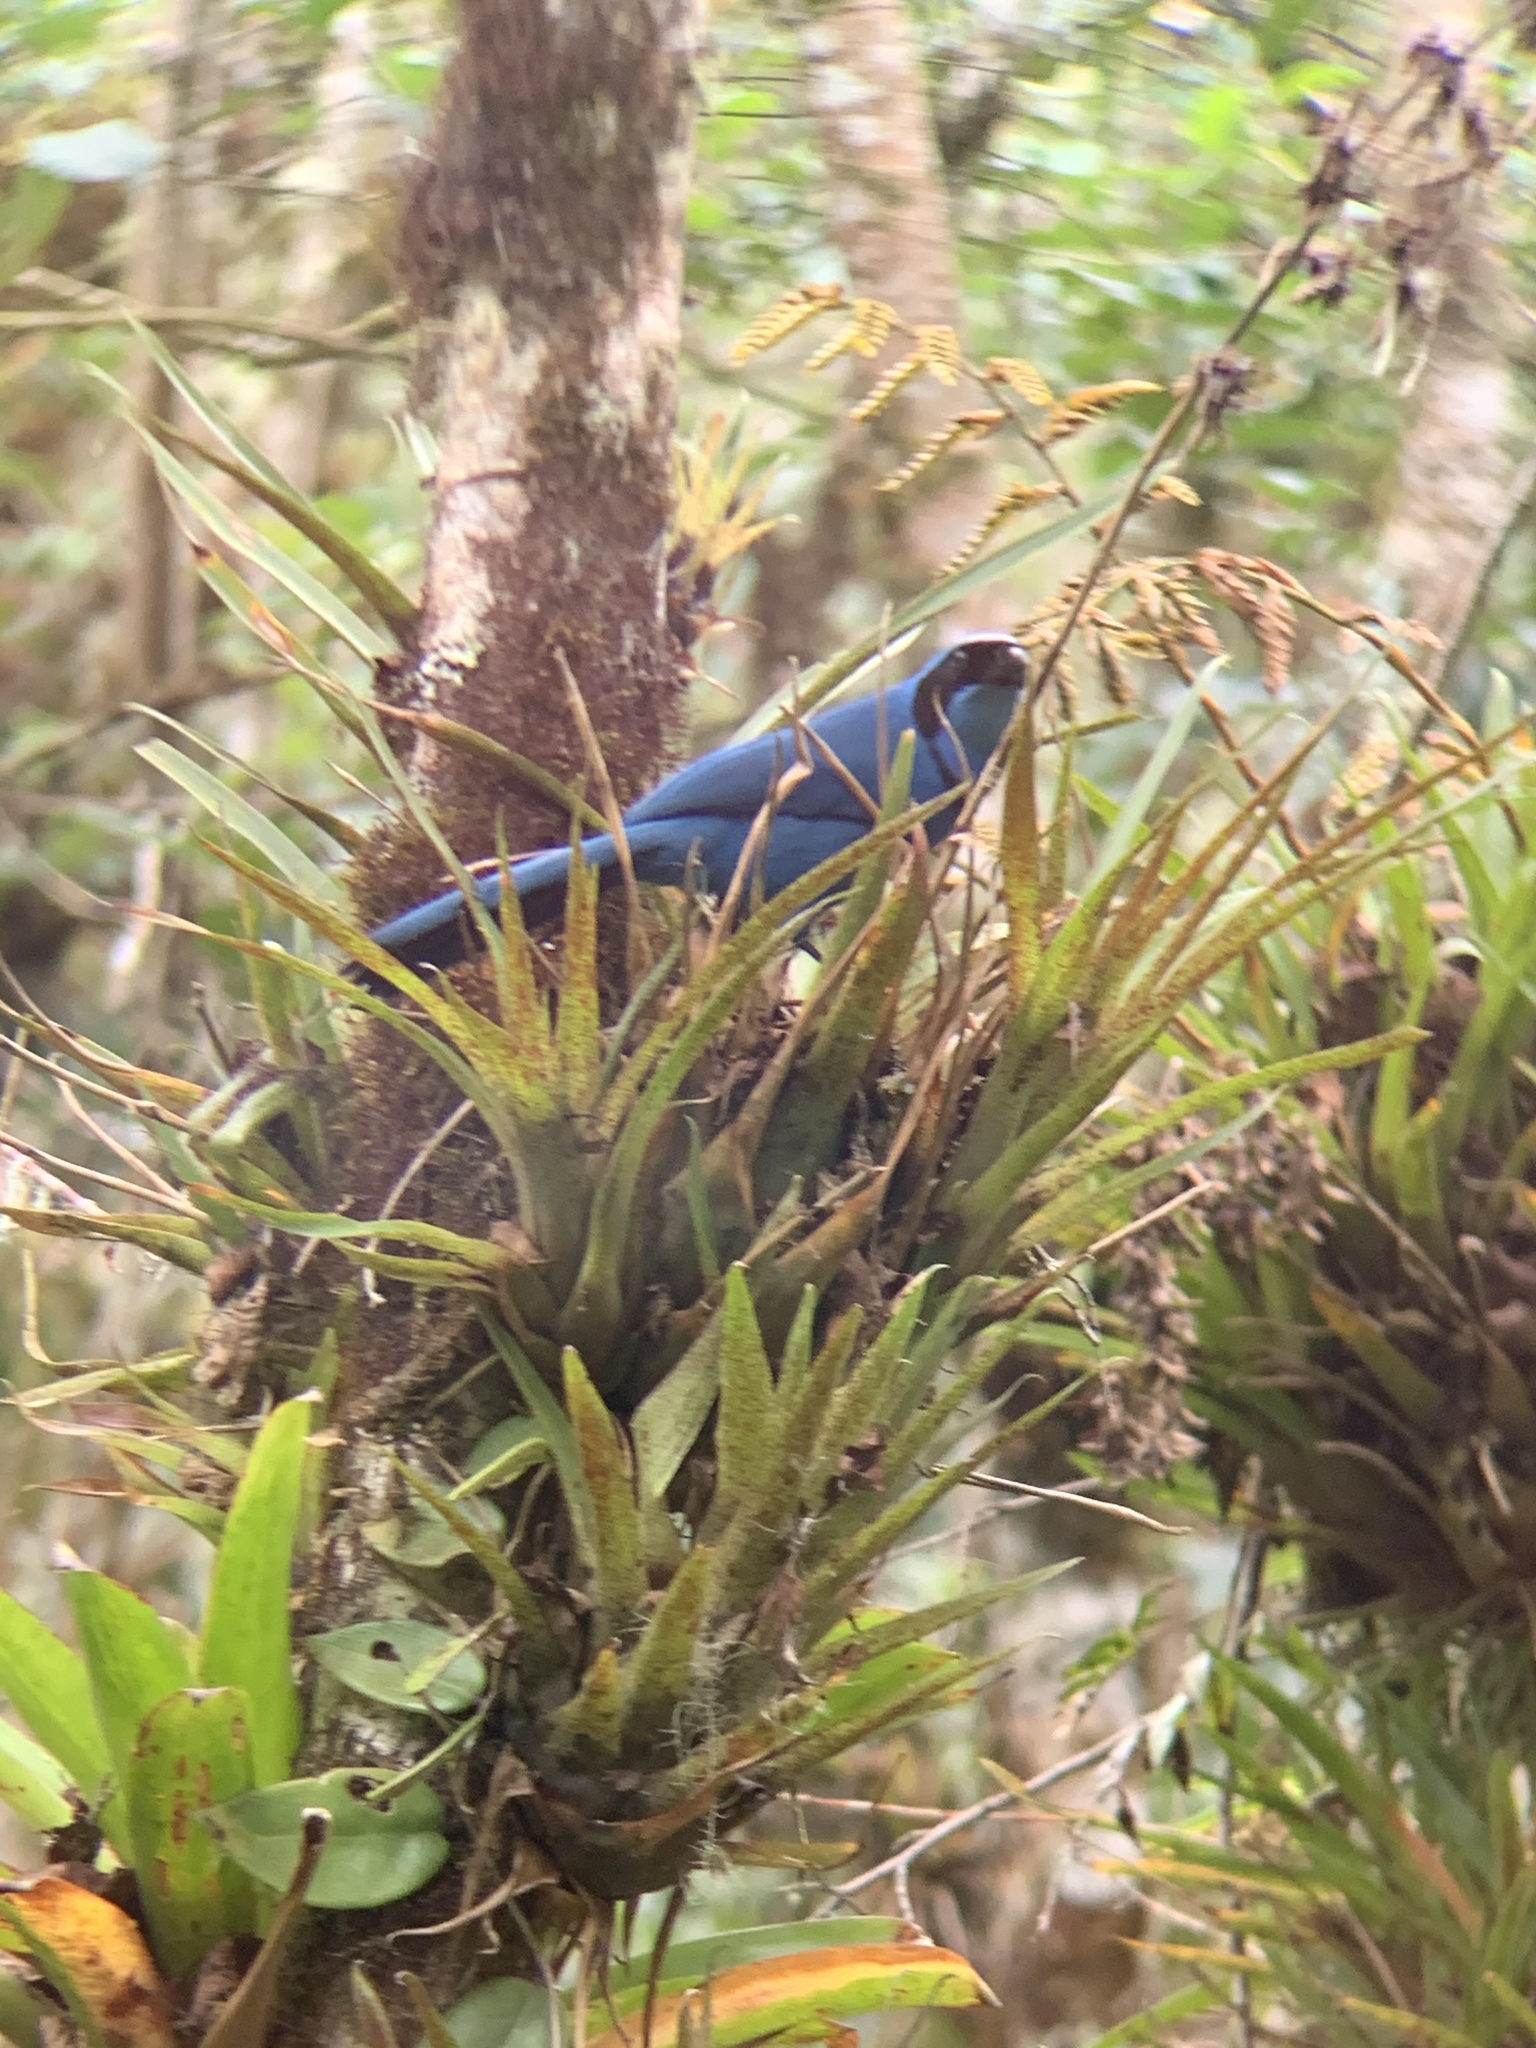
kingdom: Animalia
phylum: Chordata
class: Aves
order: Passeriformes
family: Corvidae
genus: Cyanolyca
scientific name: Cyanolyca turcosa
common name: Turquoise jay
